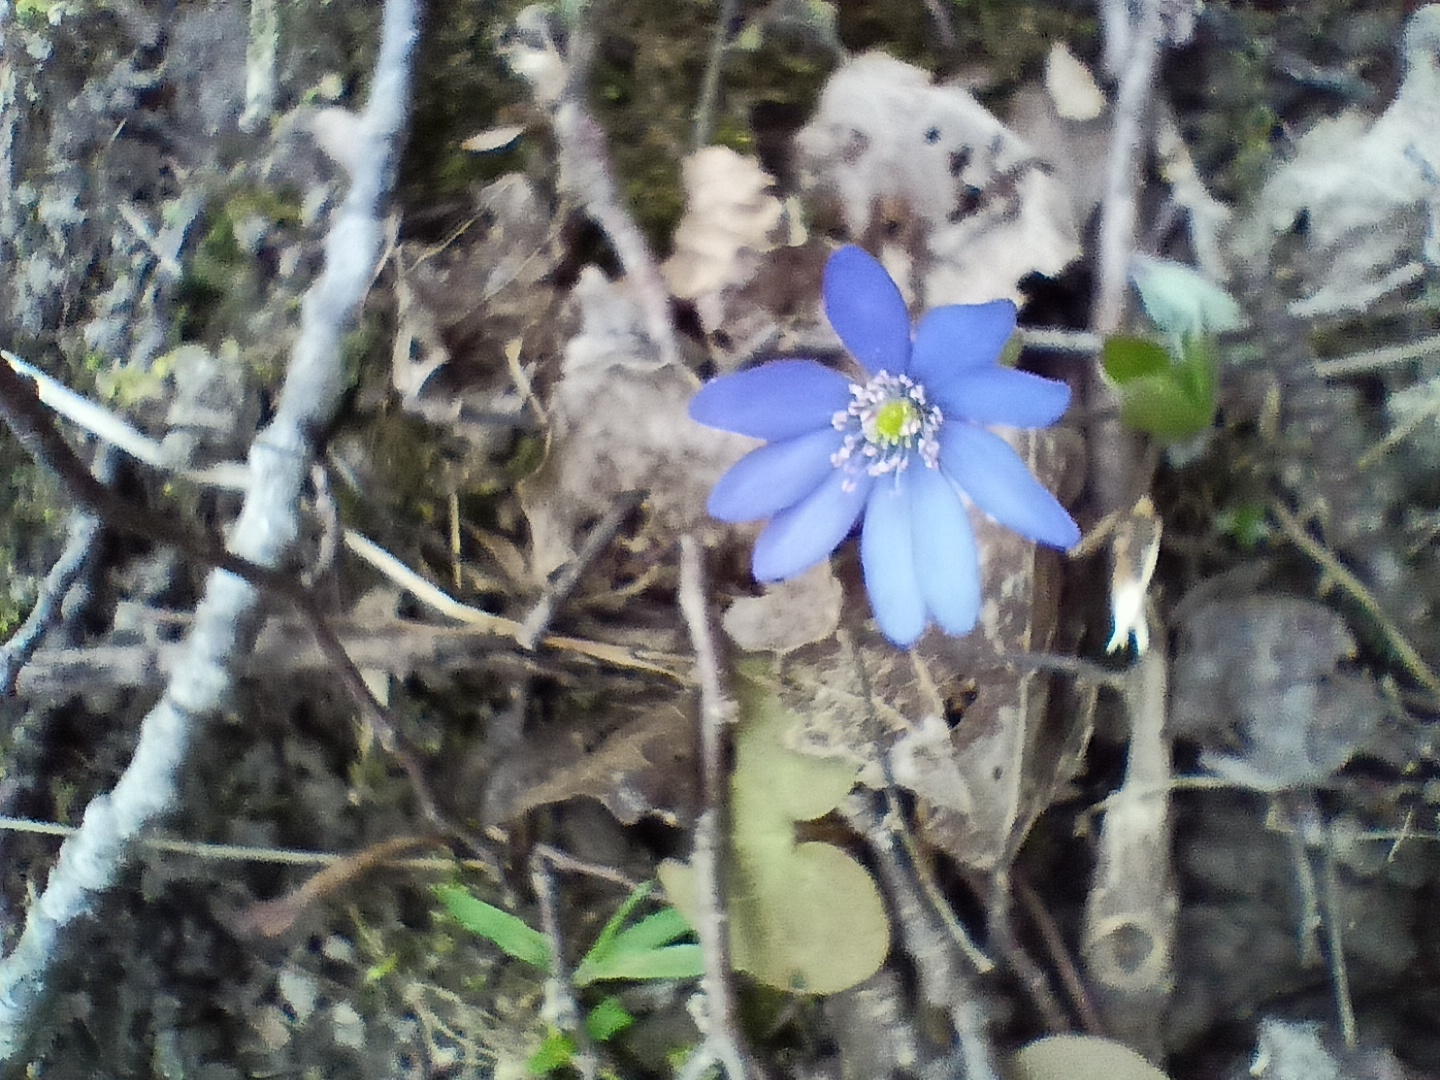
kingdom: Plantae
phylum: Tracheophyta
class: Magnoliopsida
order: Ranunculales
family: Ranunculaceae
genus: Hepatica
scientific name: Hepatica nobilis
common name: Liverleaf
